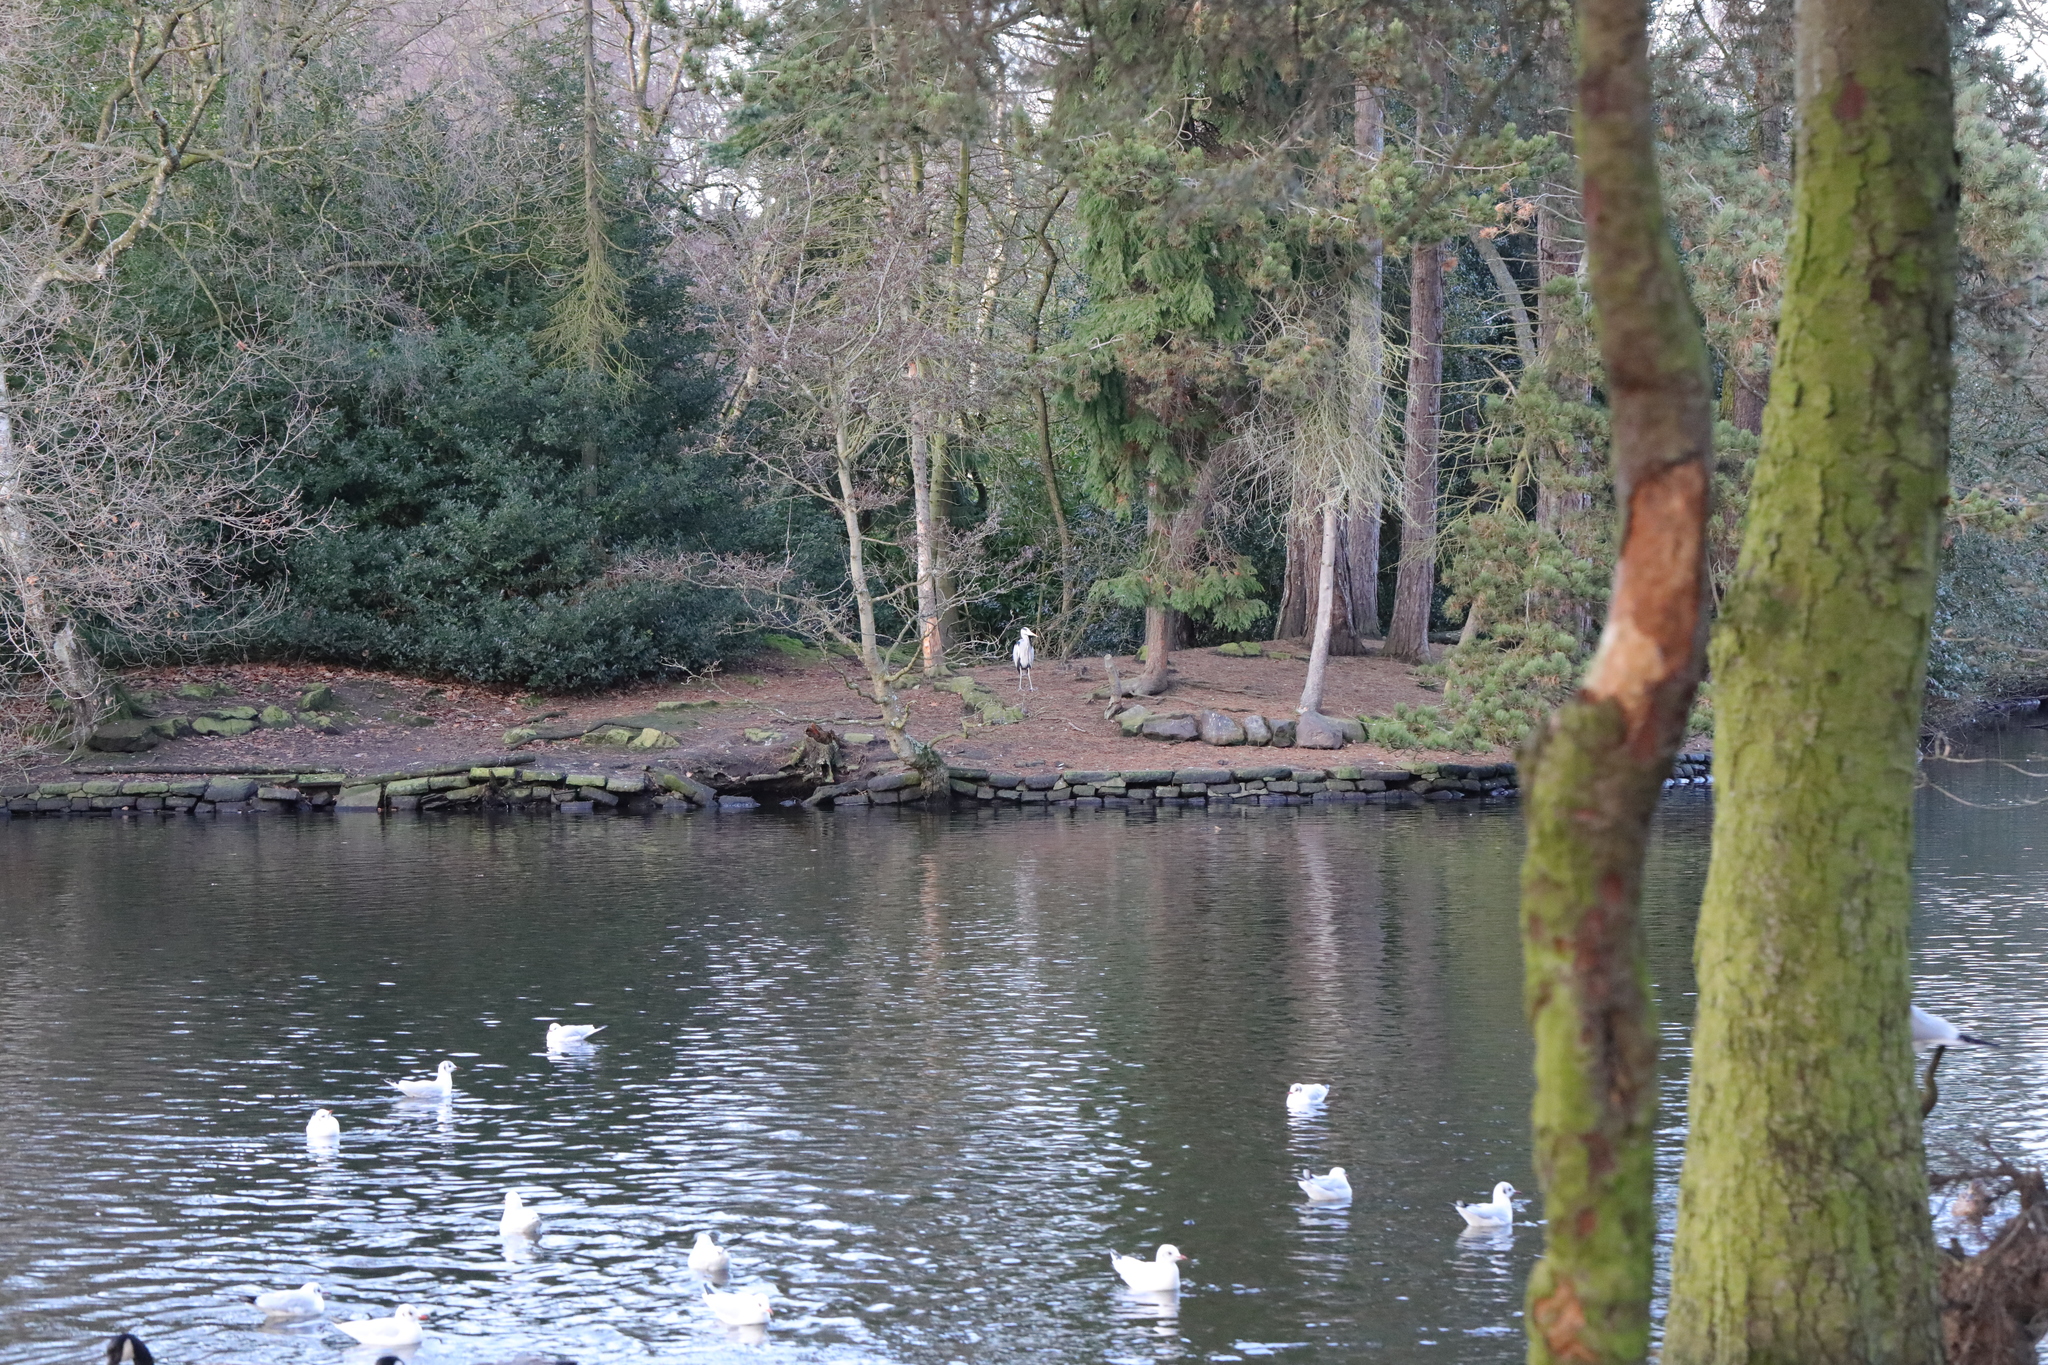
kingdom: Animalia
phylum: Chordata
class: Aves
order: Pelecaniformes
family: Ardeidae
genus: Ardea
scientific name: Ardea cinerea
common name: Grey heron
